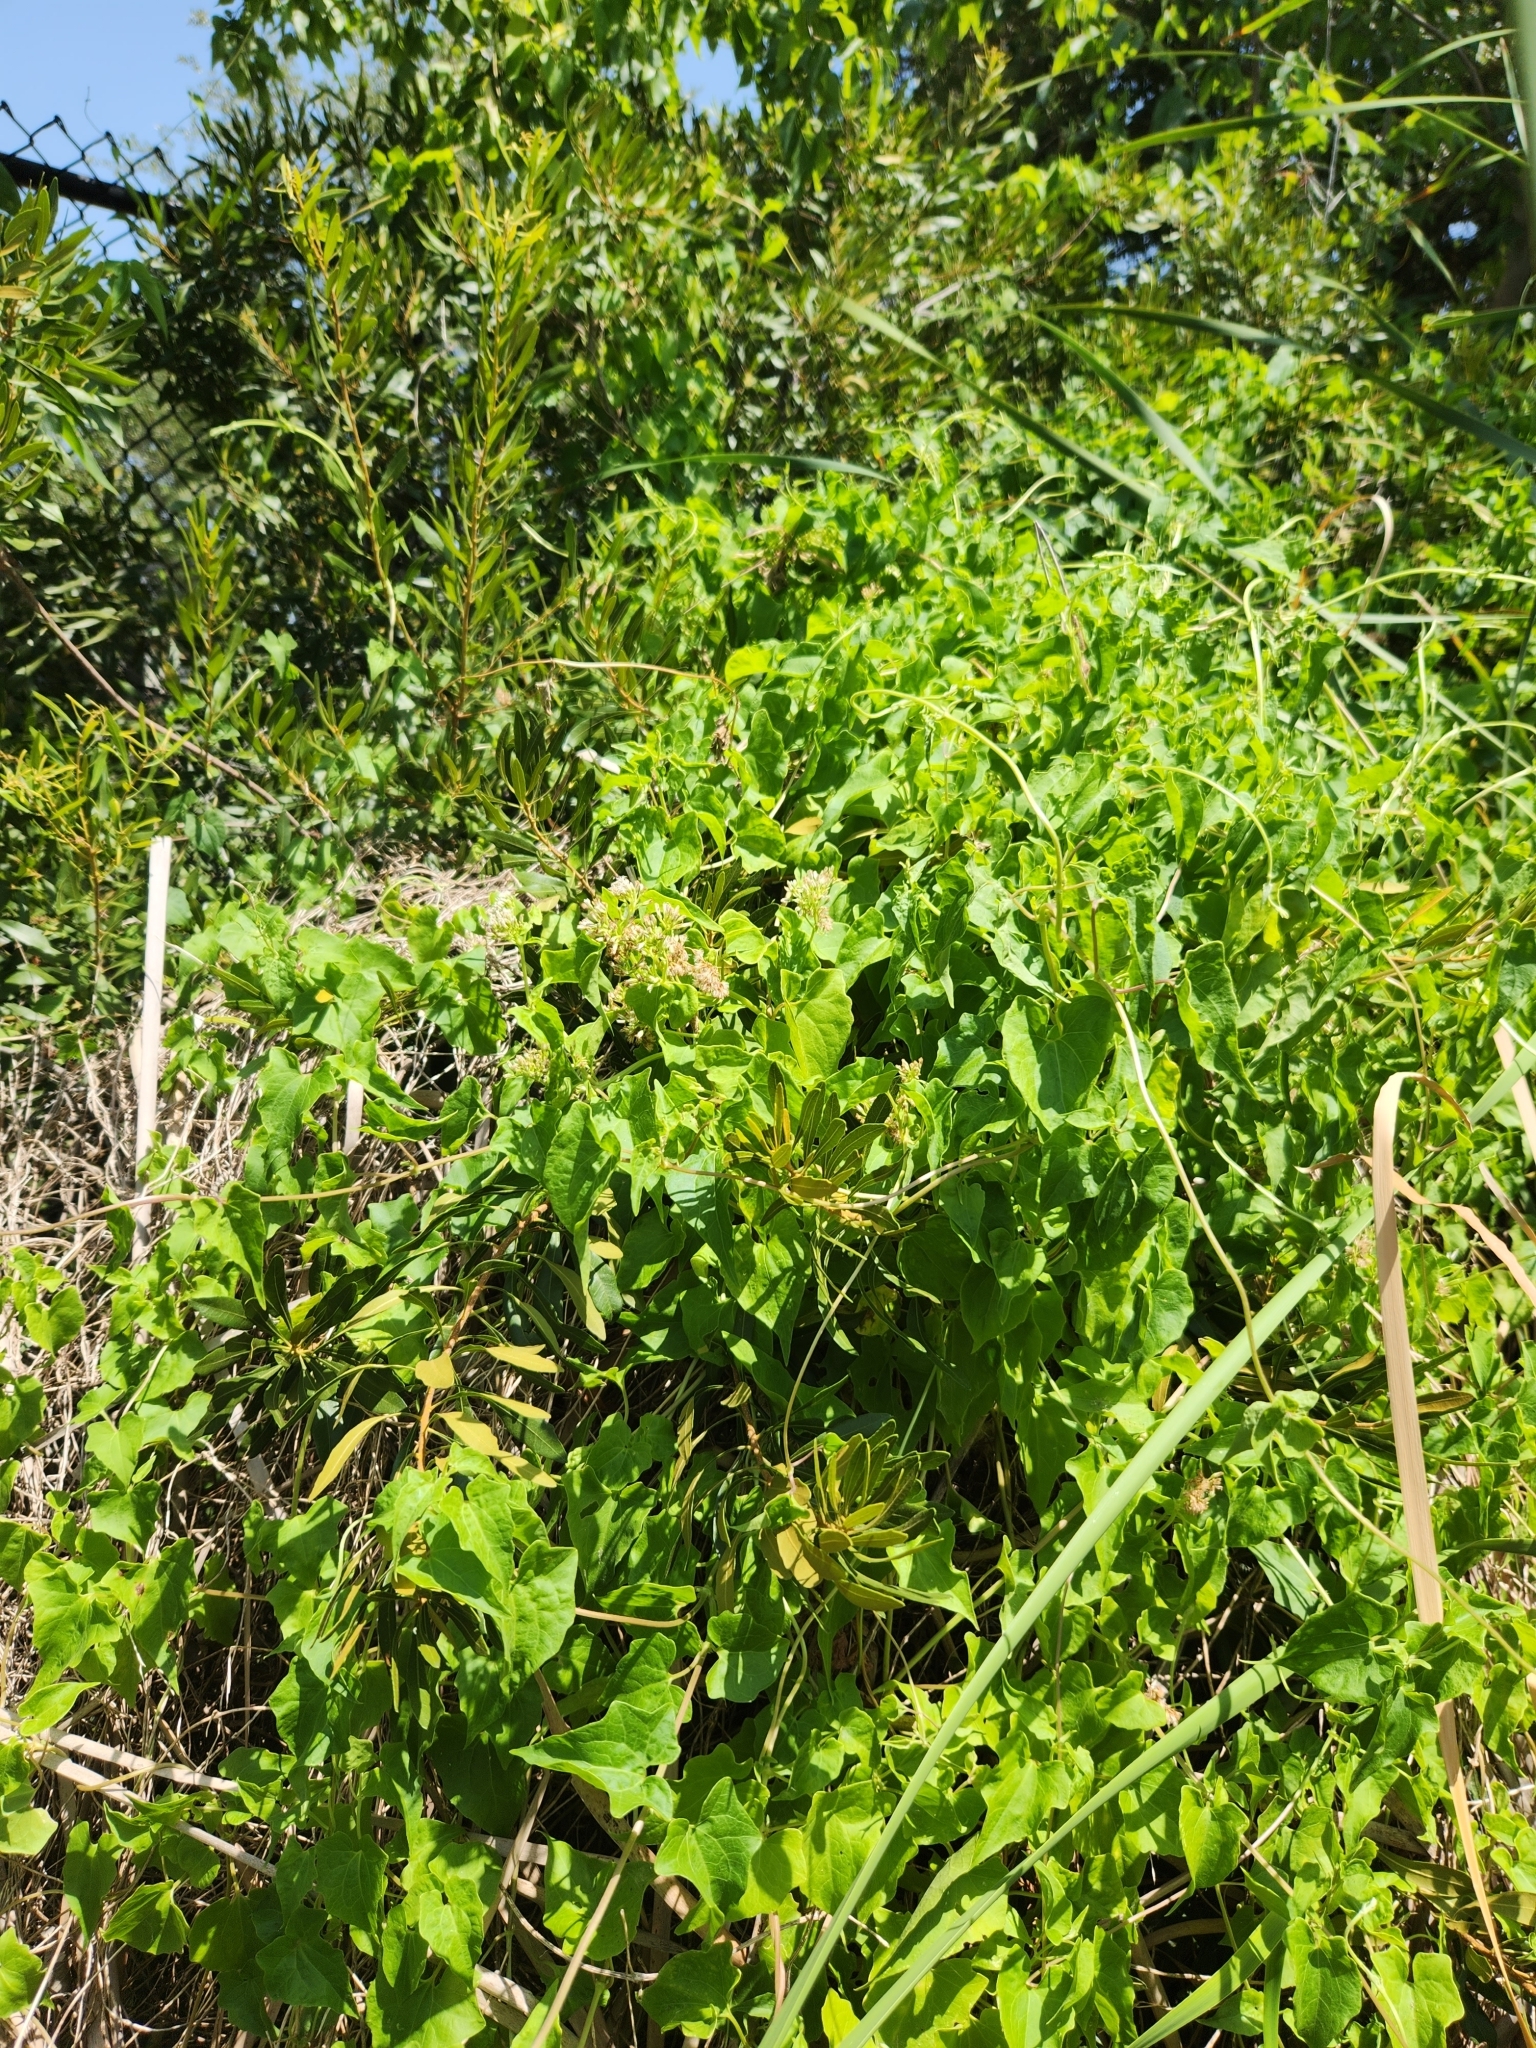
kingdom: Plantae
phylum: Tracheophyta
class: Magnoliopsida
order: Asterales
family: Asteraceae
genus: Mikania
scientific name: Mikania scandens
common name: Climbing hempvine
